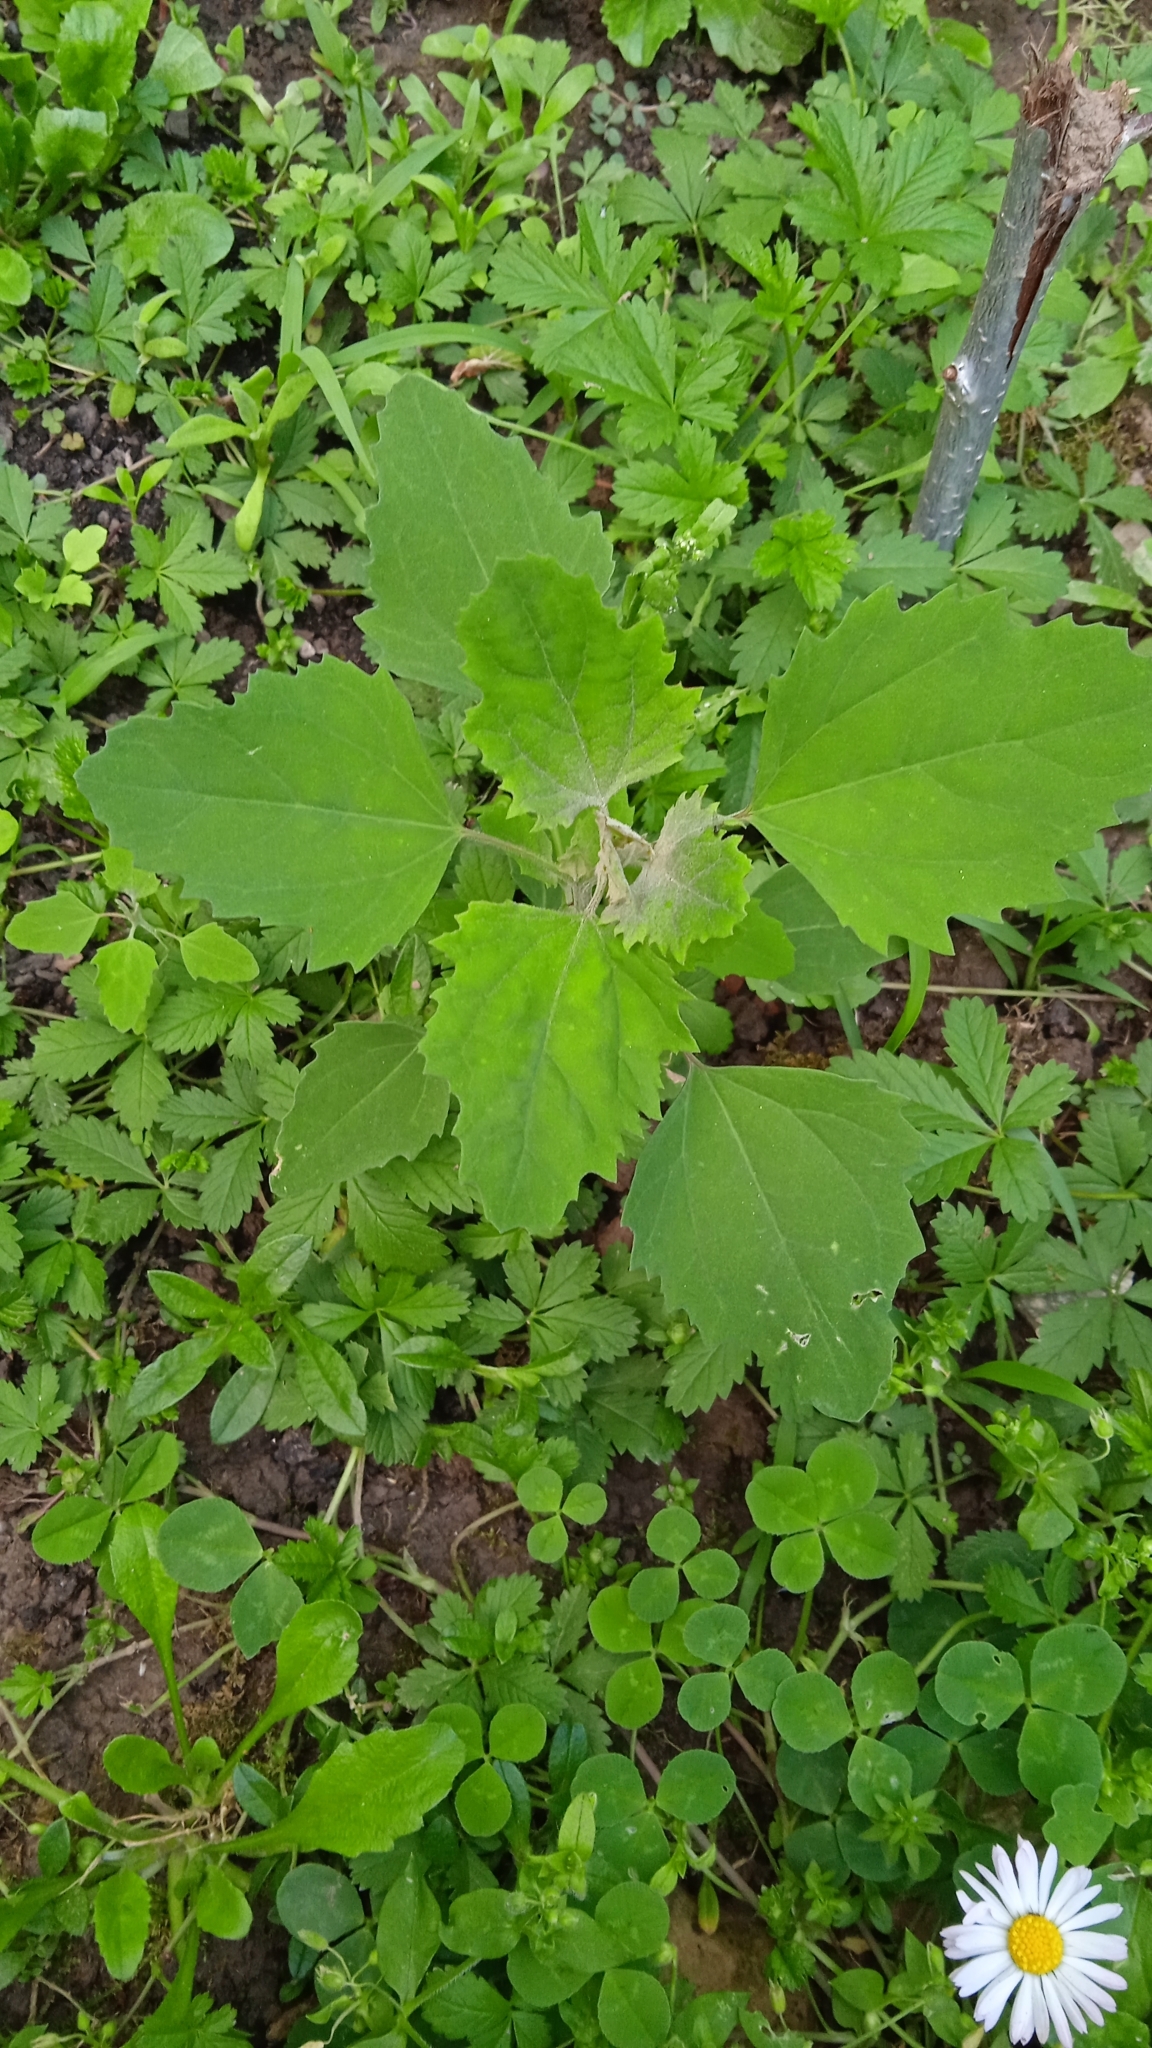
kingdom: Plantae
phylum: Tracheophyta
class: Magnoliopsida
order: Caryophyllales
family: Amaranthaceae
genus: Chenopodium
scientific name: Chenopodium album
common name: Fat-hen
